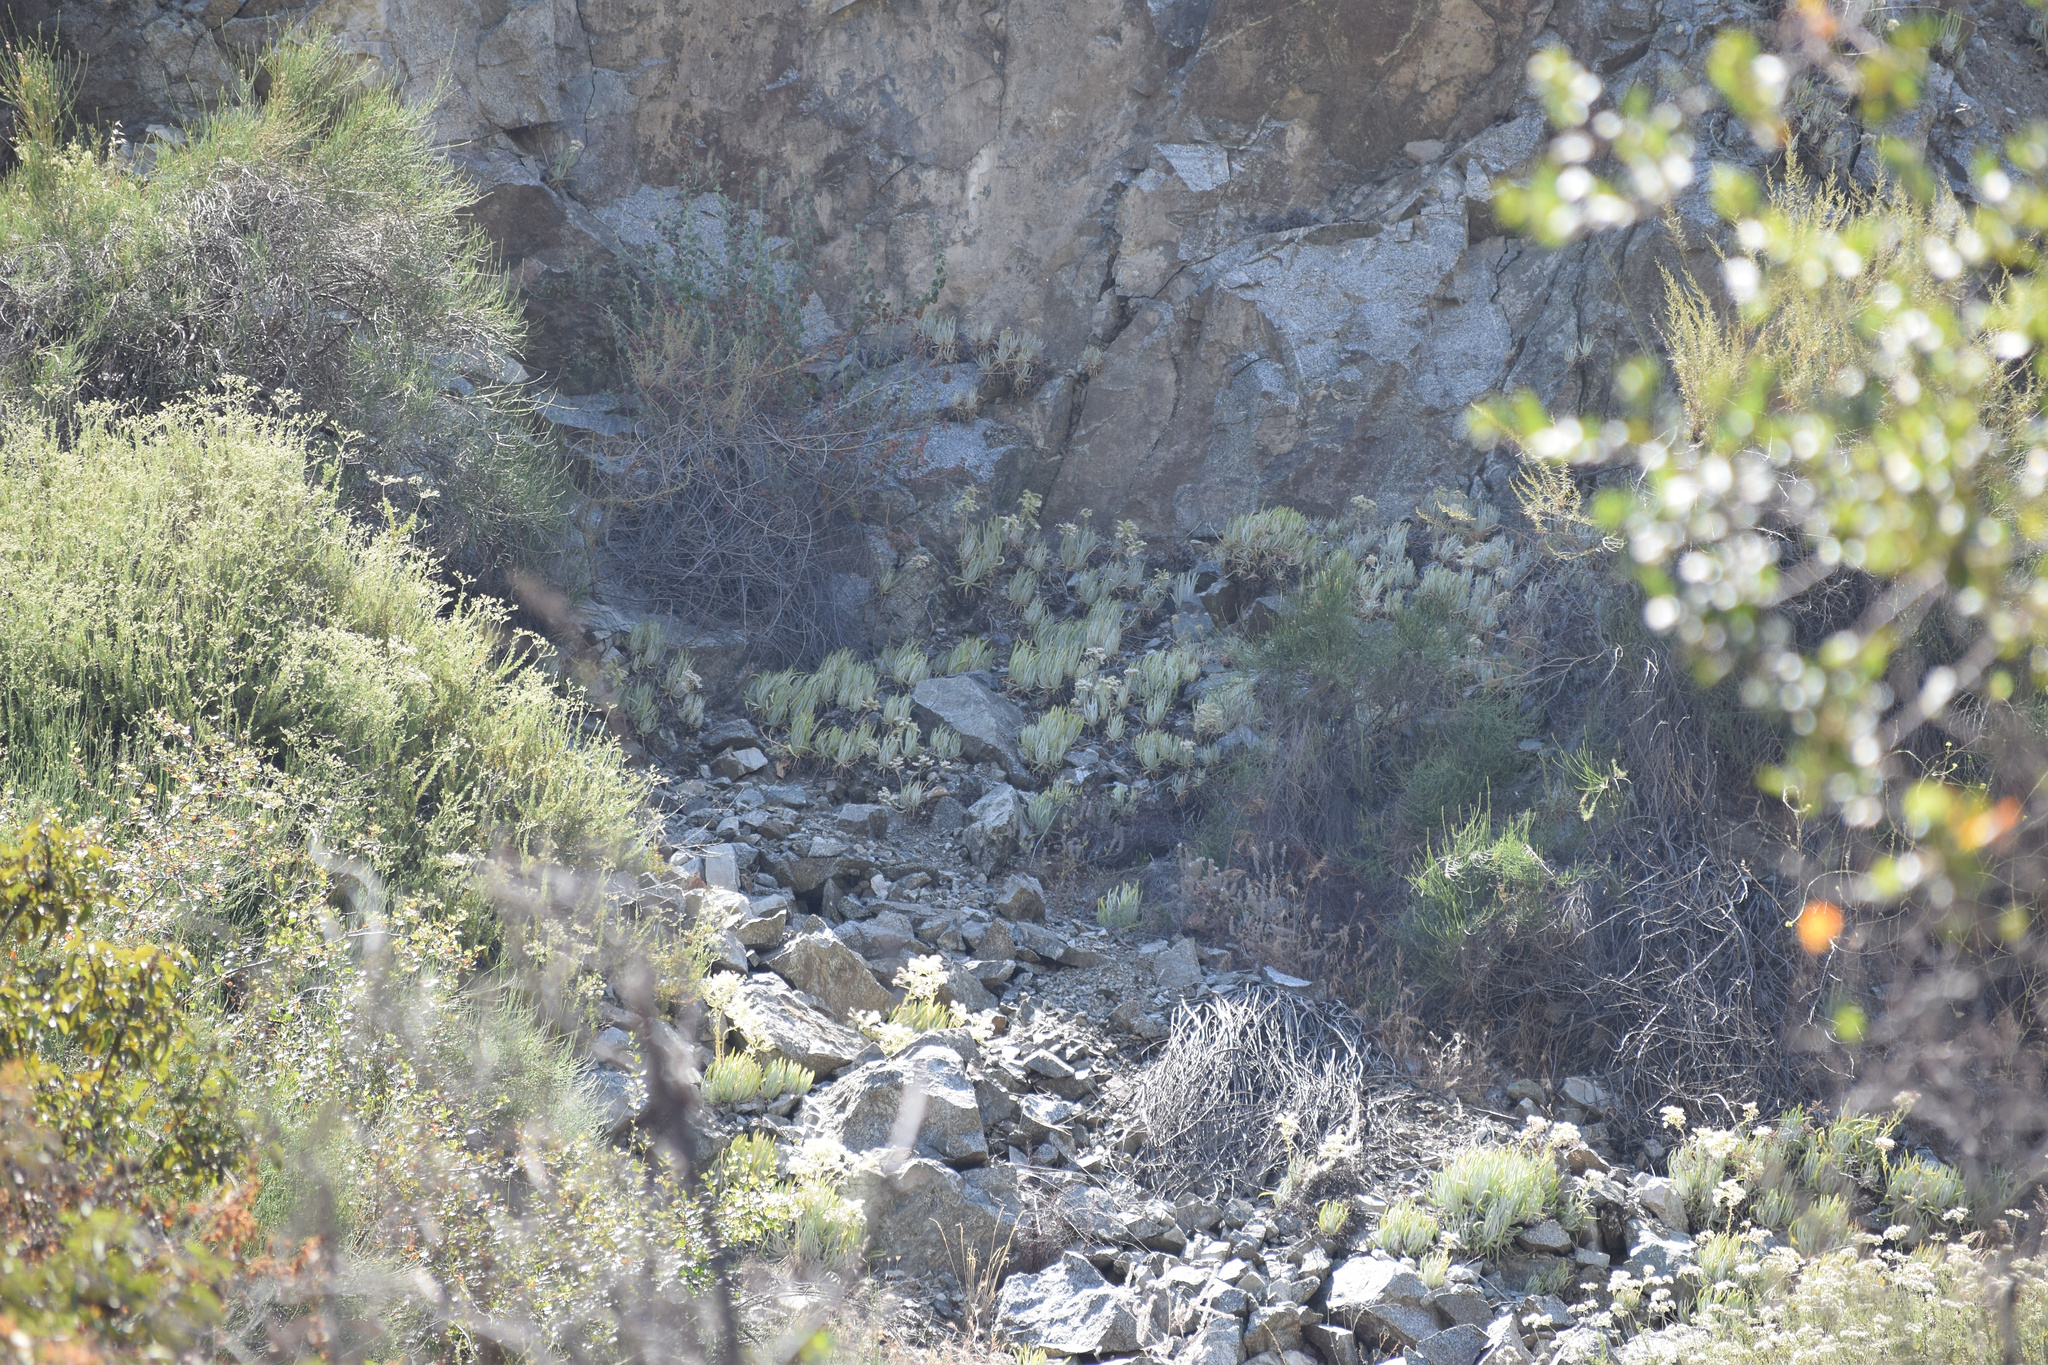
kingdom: Plantae
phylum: Tracheophyta
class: Magnoliopsida
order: Saxifragales
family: Crassulaceae
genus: Dudleya
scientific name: Dudleya densiflora
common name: San gabriel mountains dudleya
